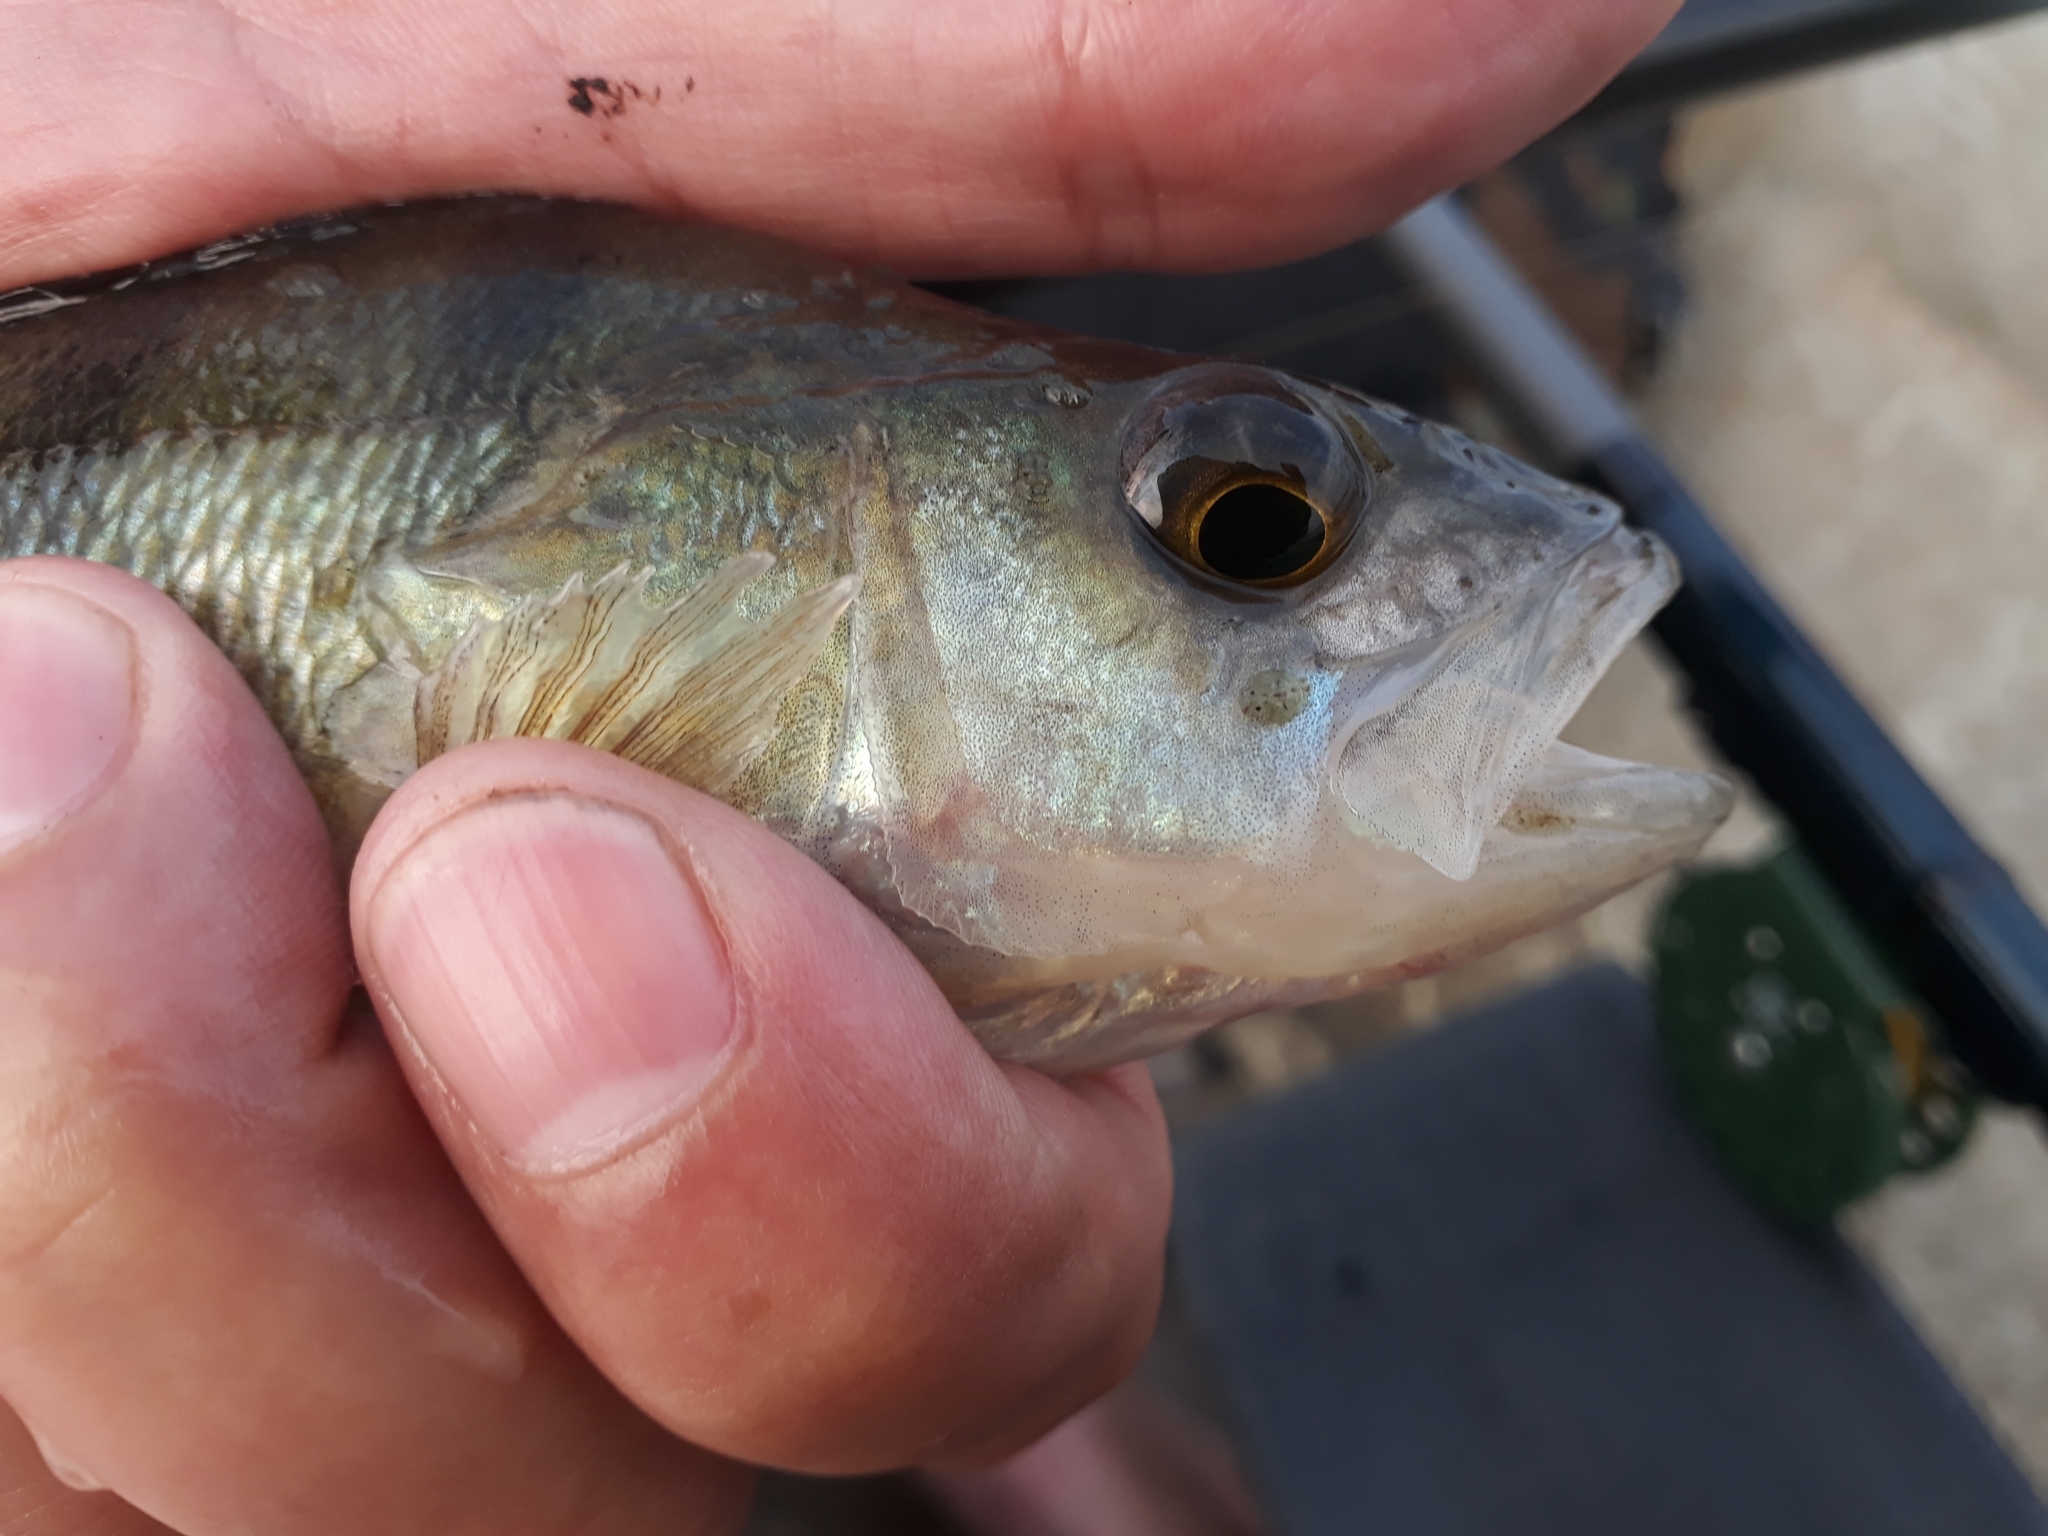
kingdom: Animalia
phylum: Chordata
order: Perciformes
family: Percidae
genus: Perca
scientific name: Perca fluviatilis
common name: Perch
